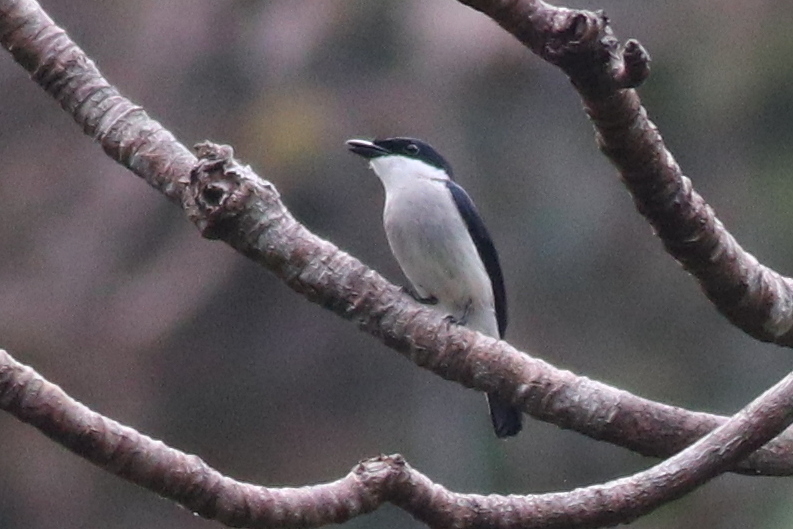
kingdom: Animalia
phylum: Chordata
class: Aves
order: Passeriformes
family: Tephrodornithidae
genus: Hemipus
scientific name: Hemipus hirundinaceus
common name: Black-winged flycatcher-shrike
